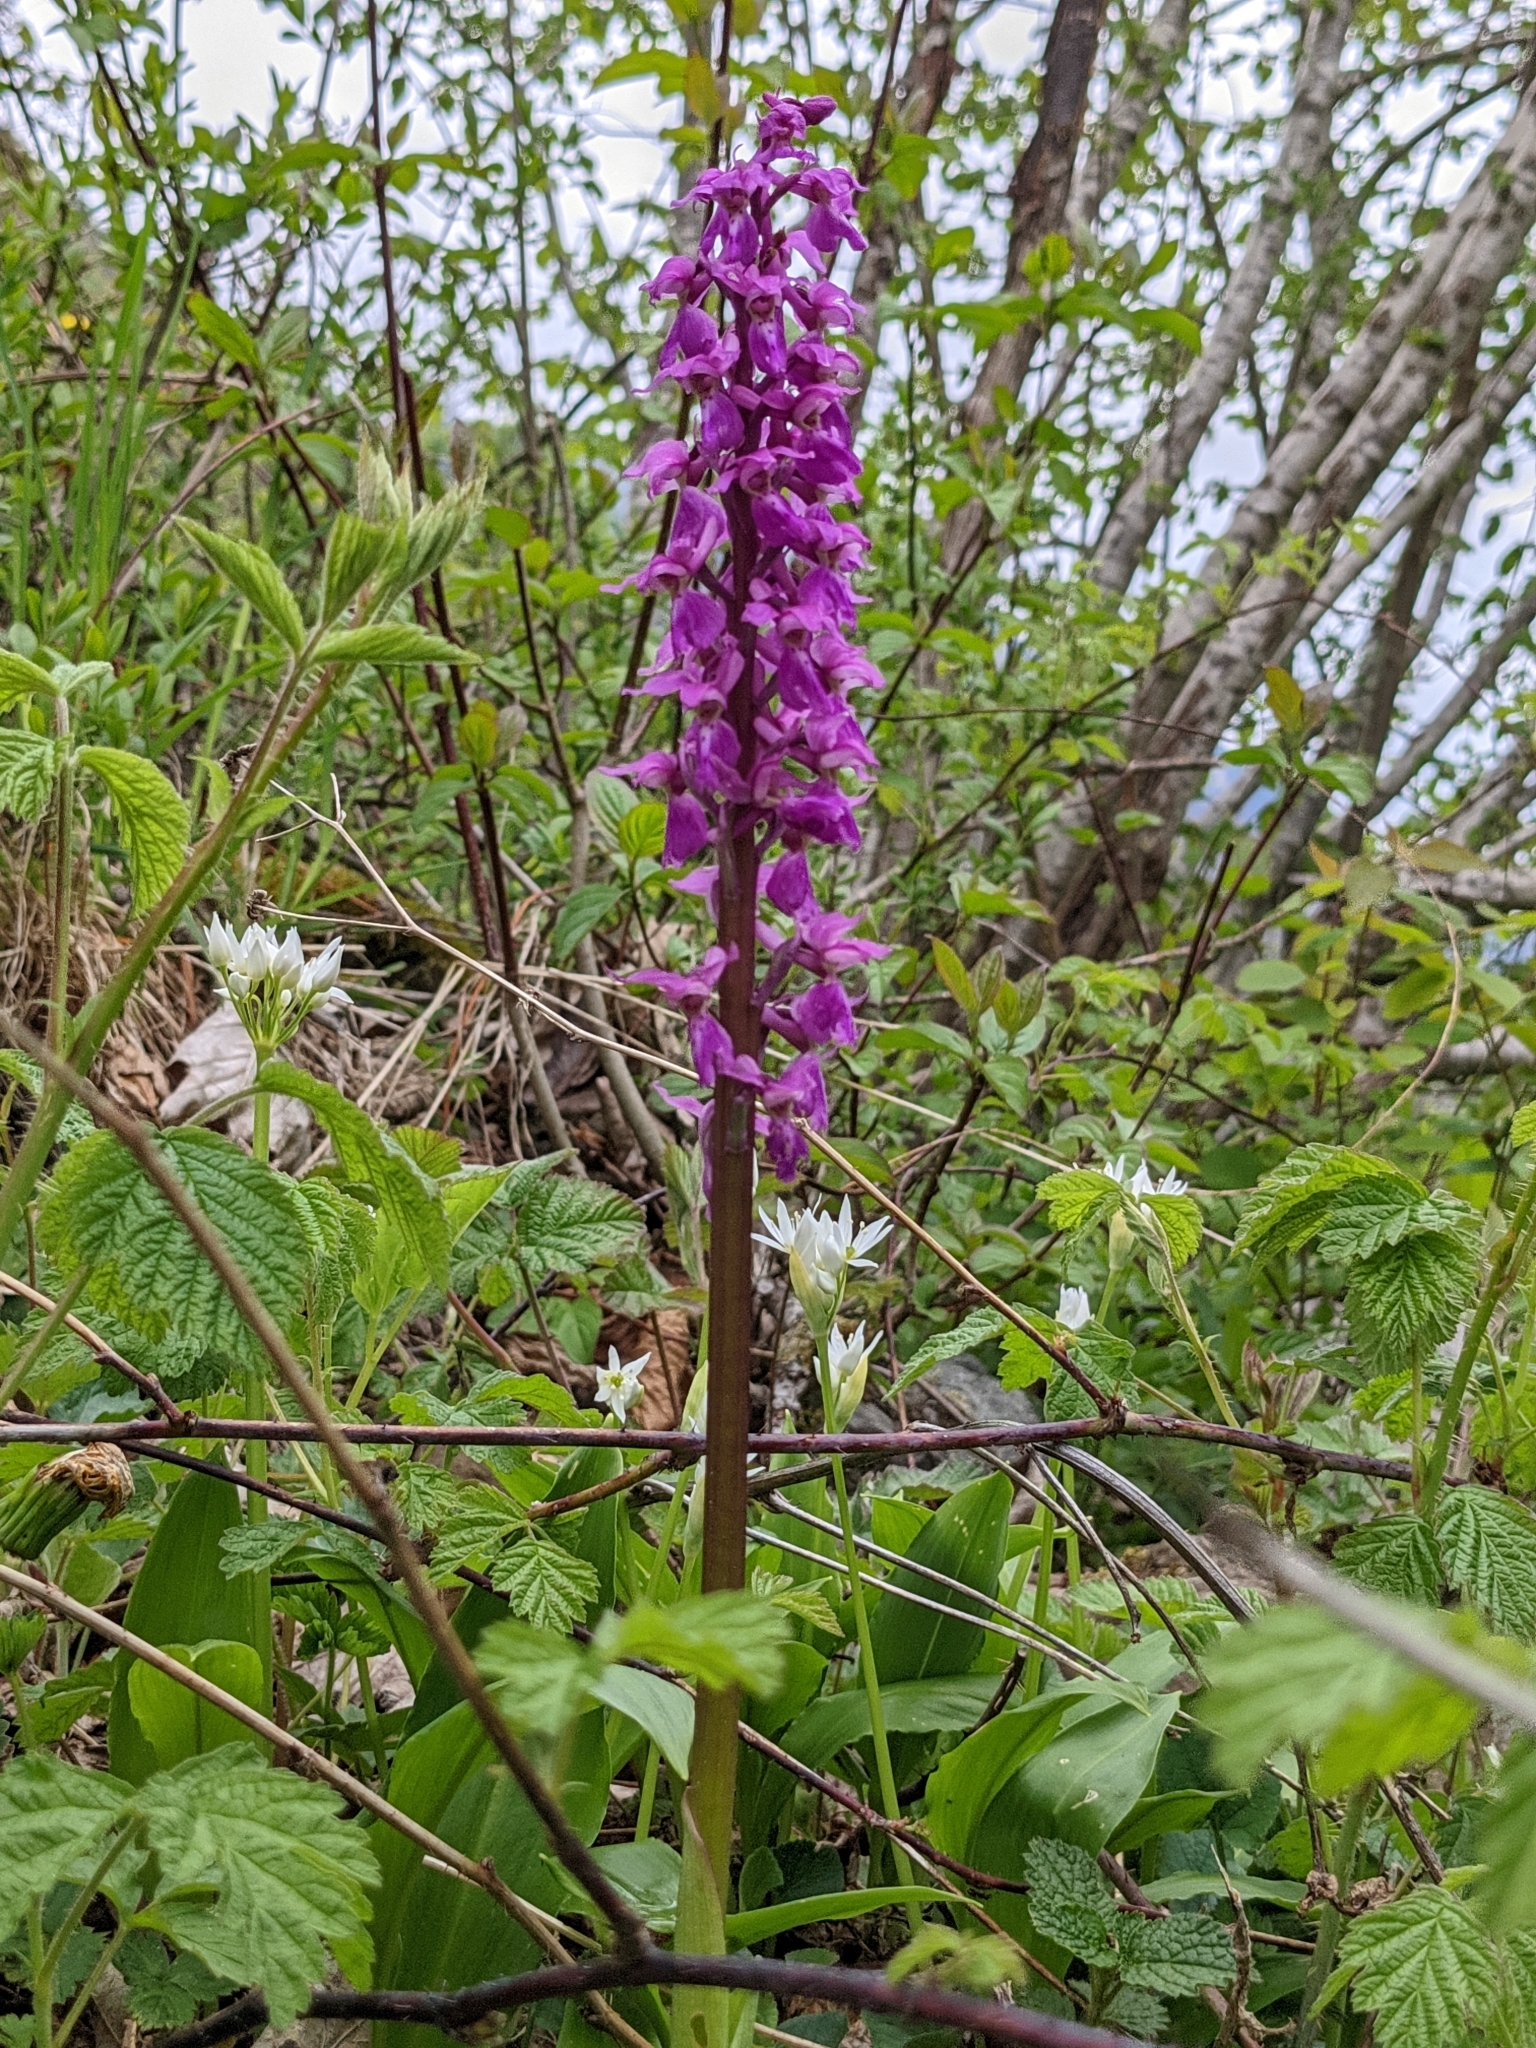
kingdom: Plantae
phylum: Tracheophyta
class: Liliopsida
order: Asparagales
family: Orchidaceae
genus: Orchis
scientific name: Orchis mascula
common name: Early-purple orchid
